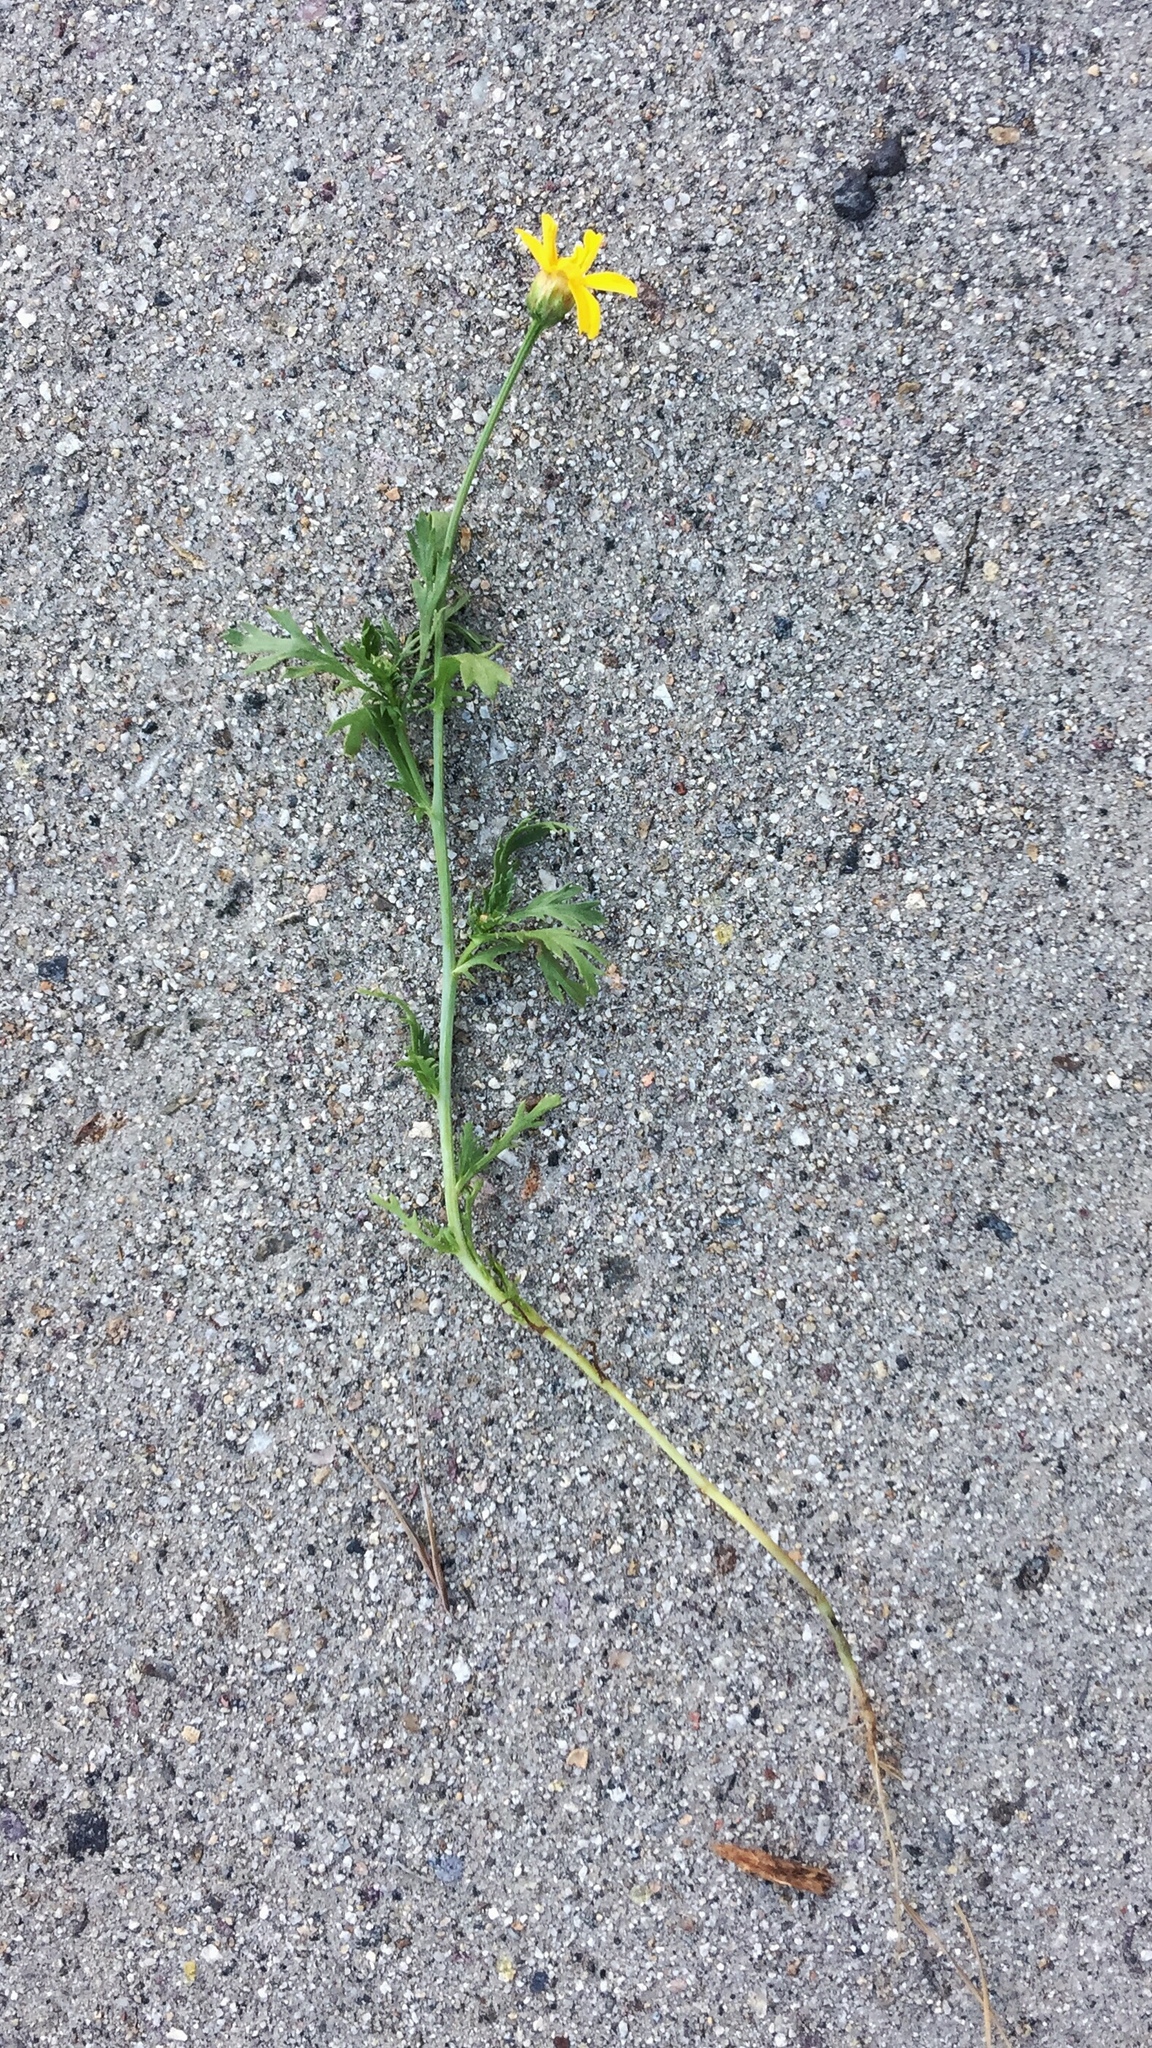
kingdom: Plantae
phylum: Tracheophyta
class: Magnoliopsida
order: Asterales
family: Asteraceae
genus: Glebionis
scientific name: Glebionis coronaria
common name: Crowndaisy
